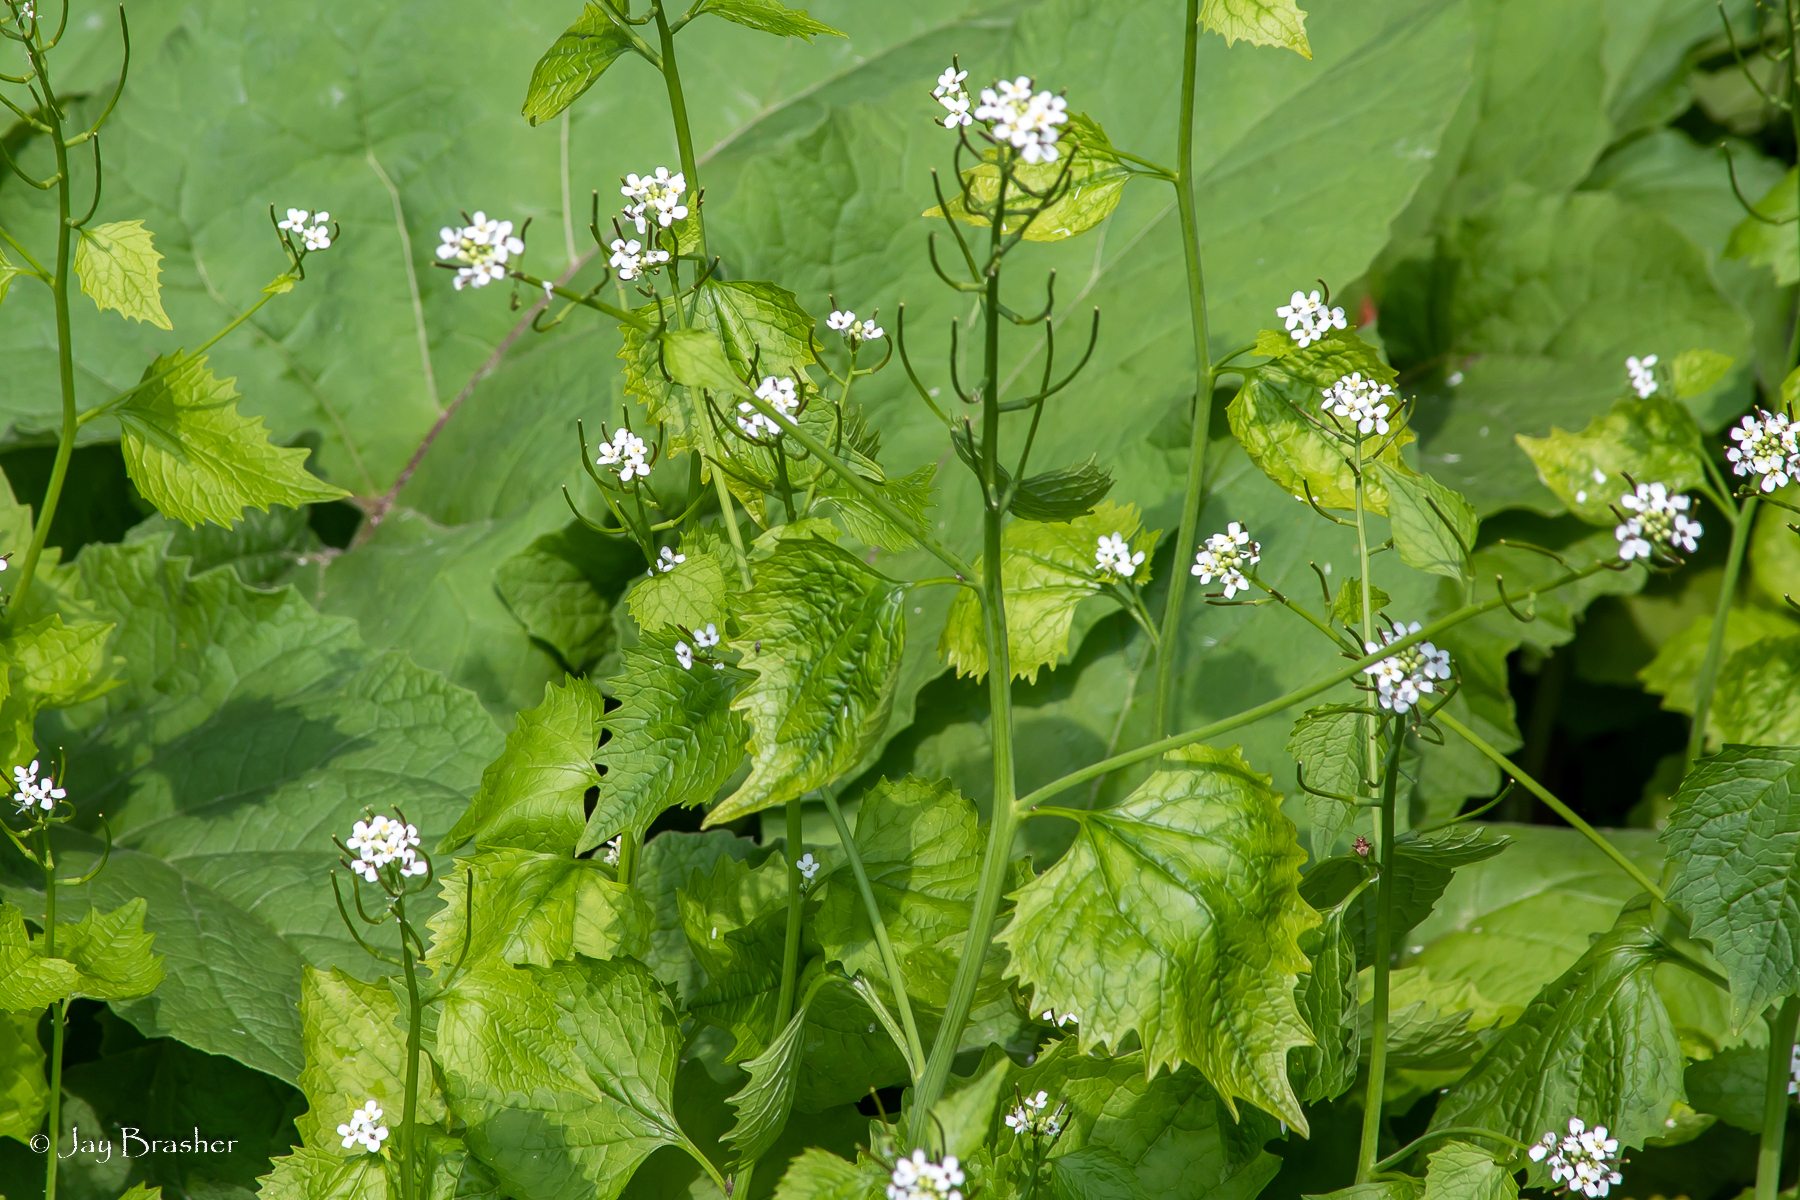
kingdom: Plantae
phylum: Tracheophyta
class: Magnoliopsida
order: Brassicales
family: Brassicaceae
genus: Alliaria
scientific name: Alliaria petiolata
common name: Garlic mustard
